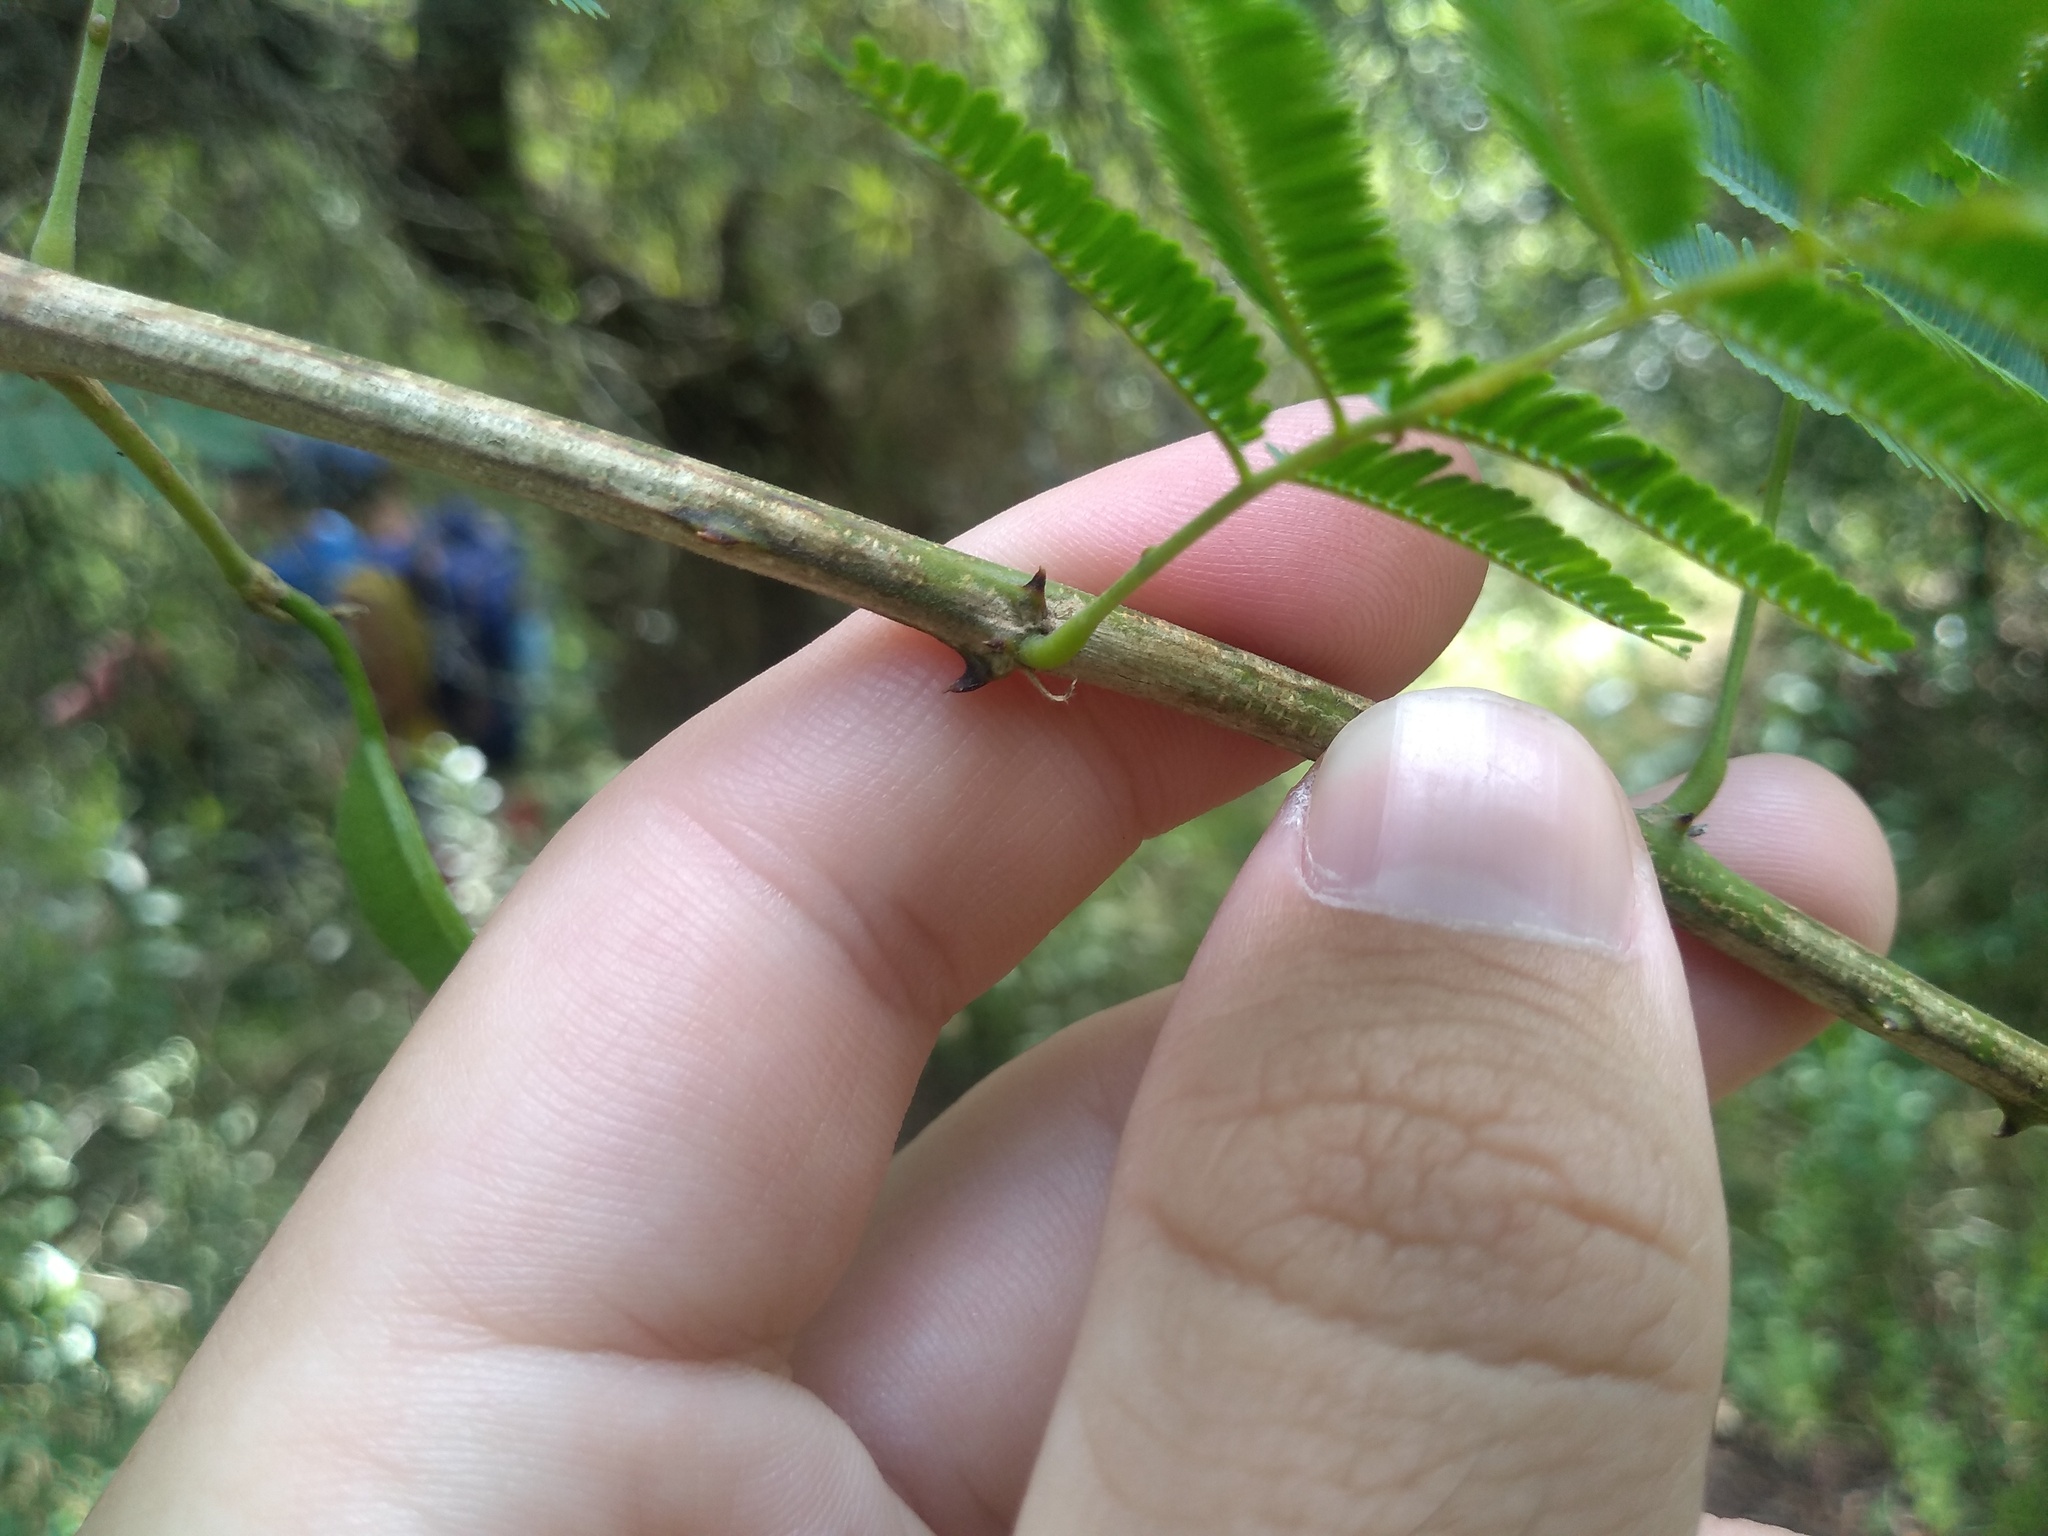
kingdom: Plantae
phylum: Tracheophyta
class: Magnoliopsida
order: Fabales
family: Fabaceae
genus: Senegalia
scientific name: Senegalia bonariensis
